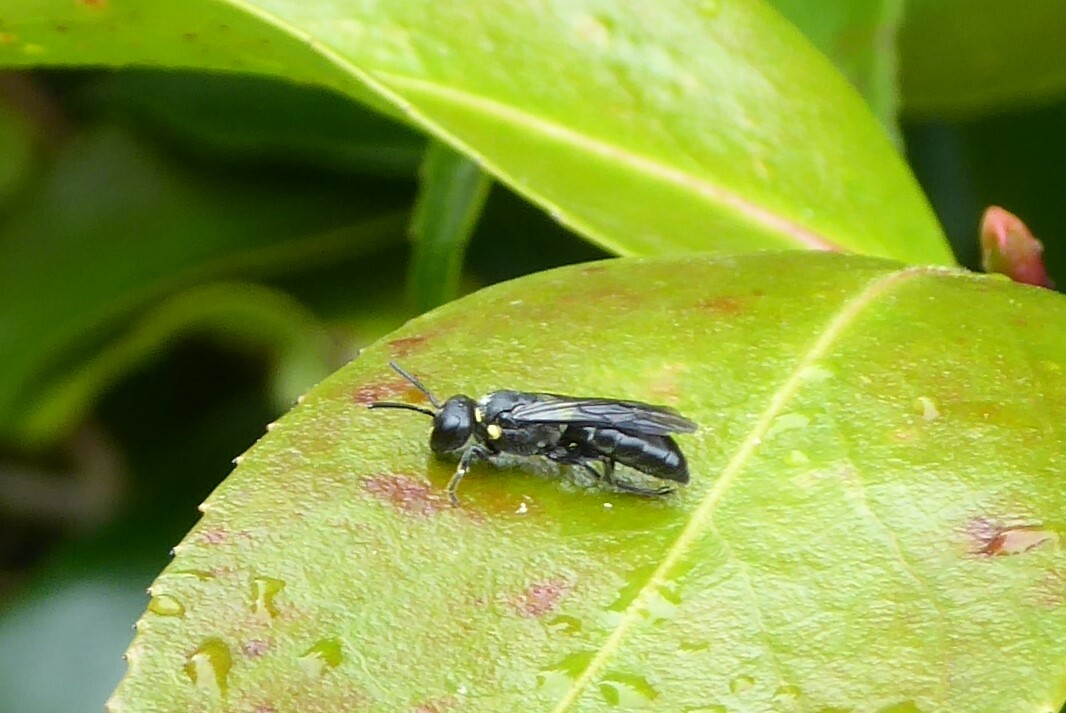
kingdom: Animalia
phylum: Arthropoda
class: Insecta
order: Hymenoptera
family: Colletidae
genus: Hylaeus
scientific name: Hylaeus relegatus
